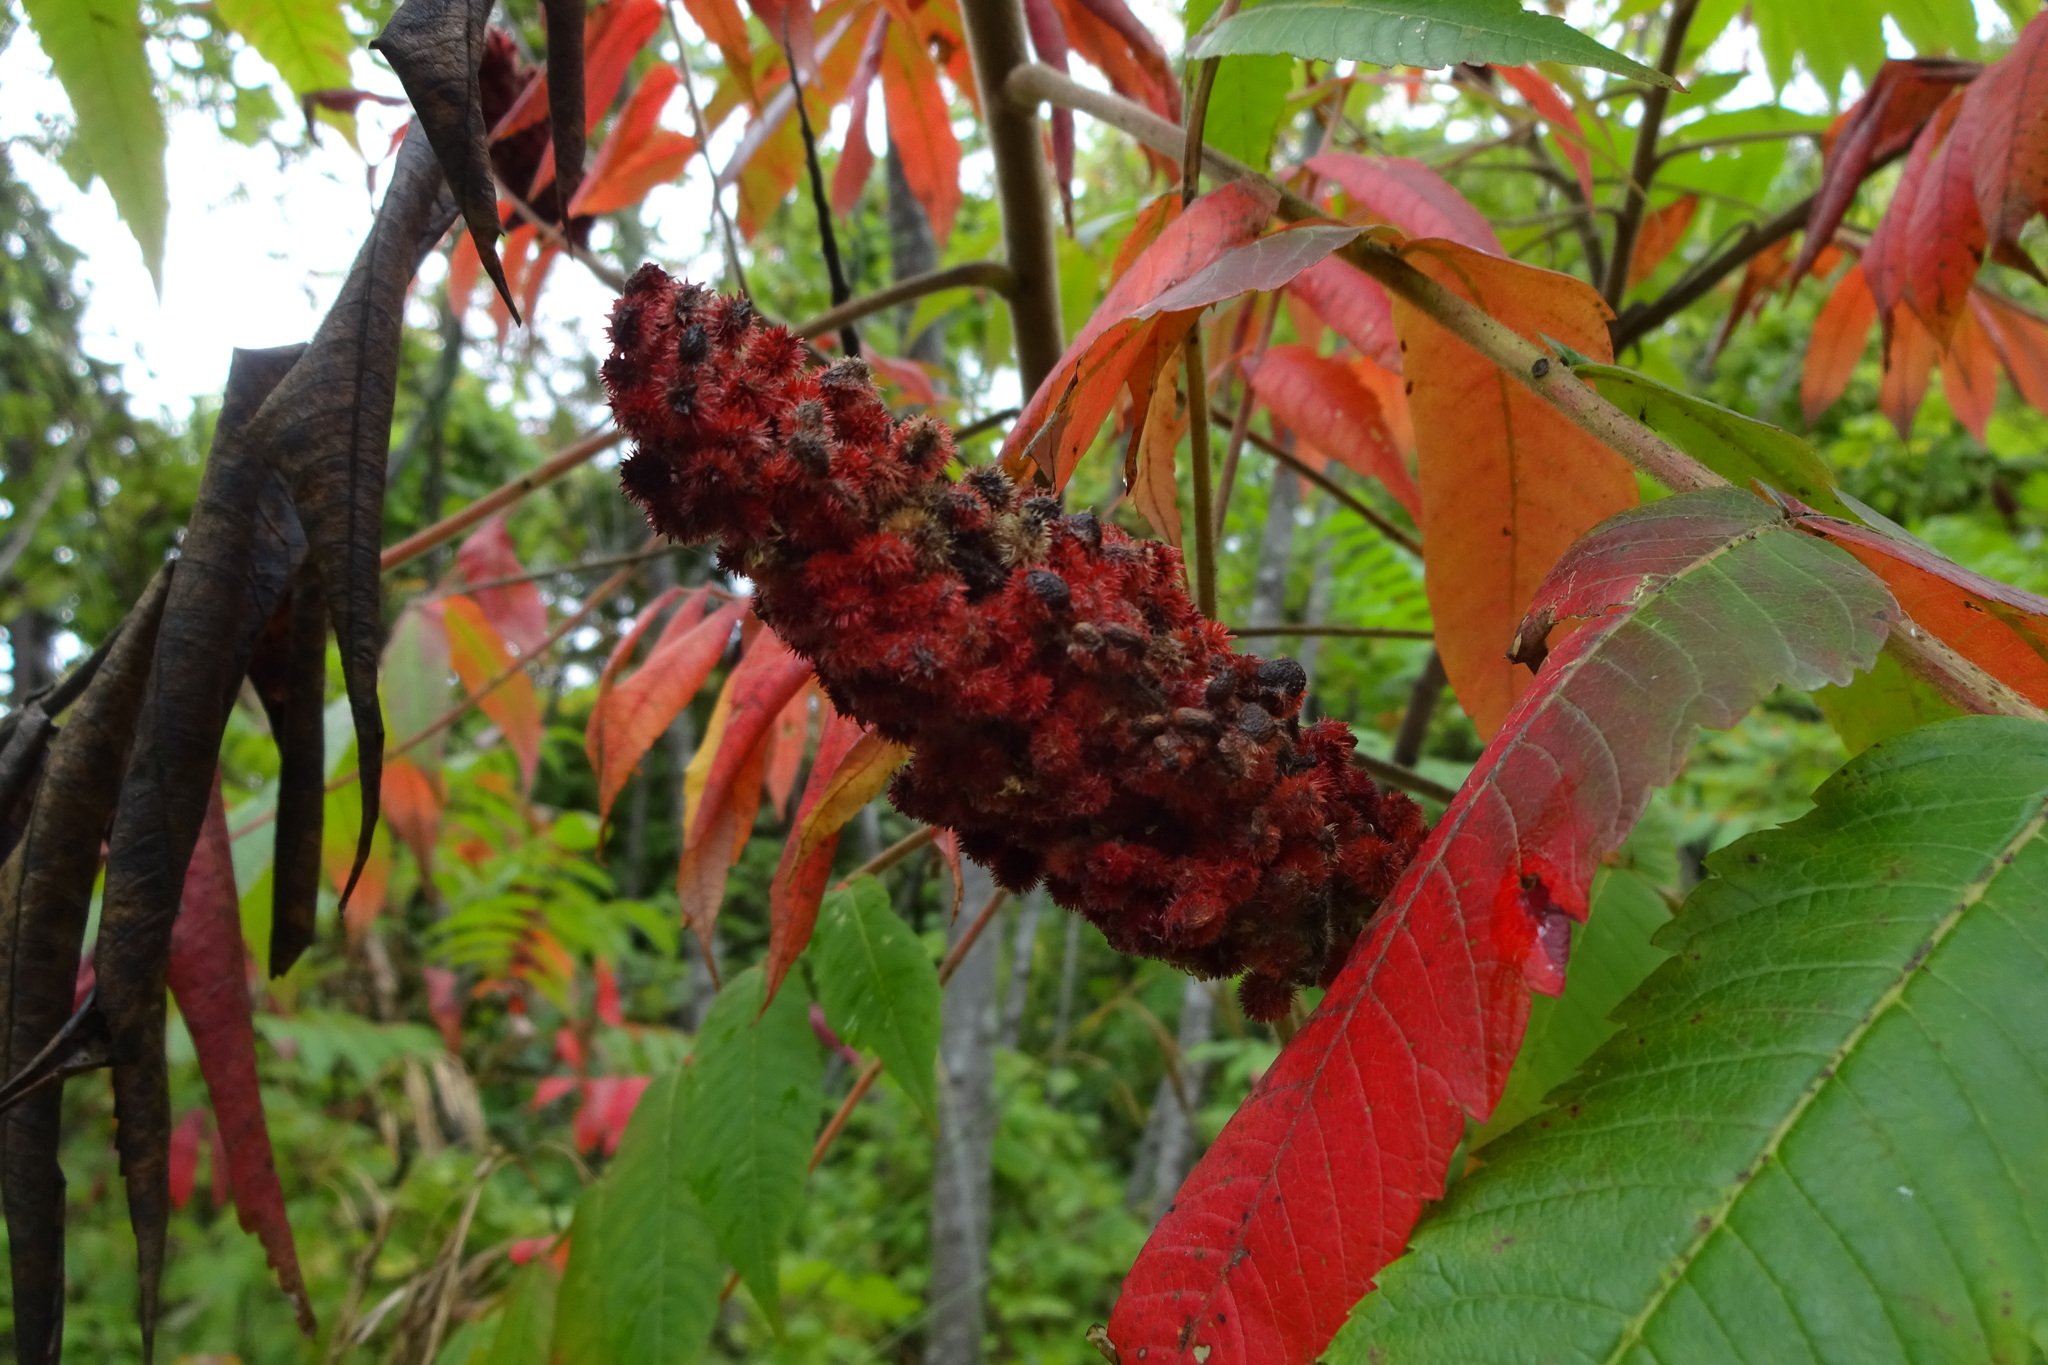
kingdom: Plantae
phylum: Tracheophyta
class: Magnoliopsida
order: Sapindales
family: Anacardiaceae
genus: Rhus
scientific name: Rhus typhina
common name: Staghorn sumac
